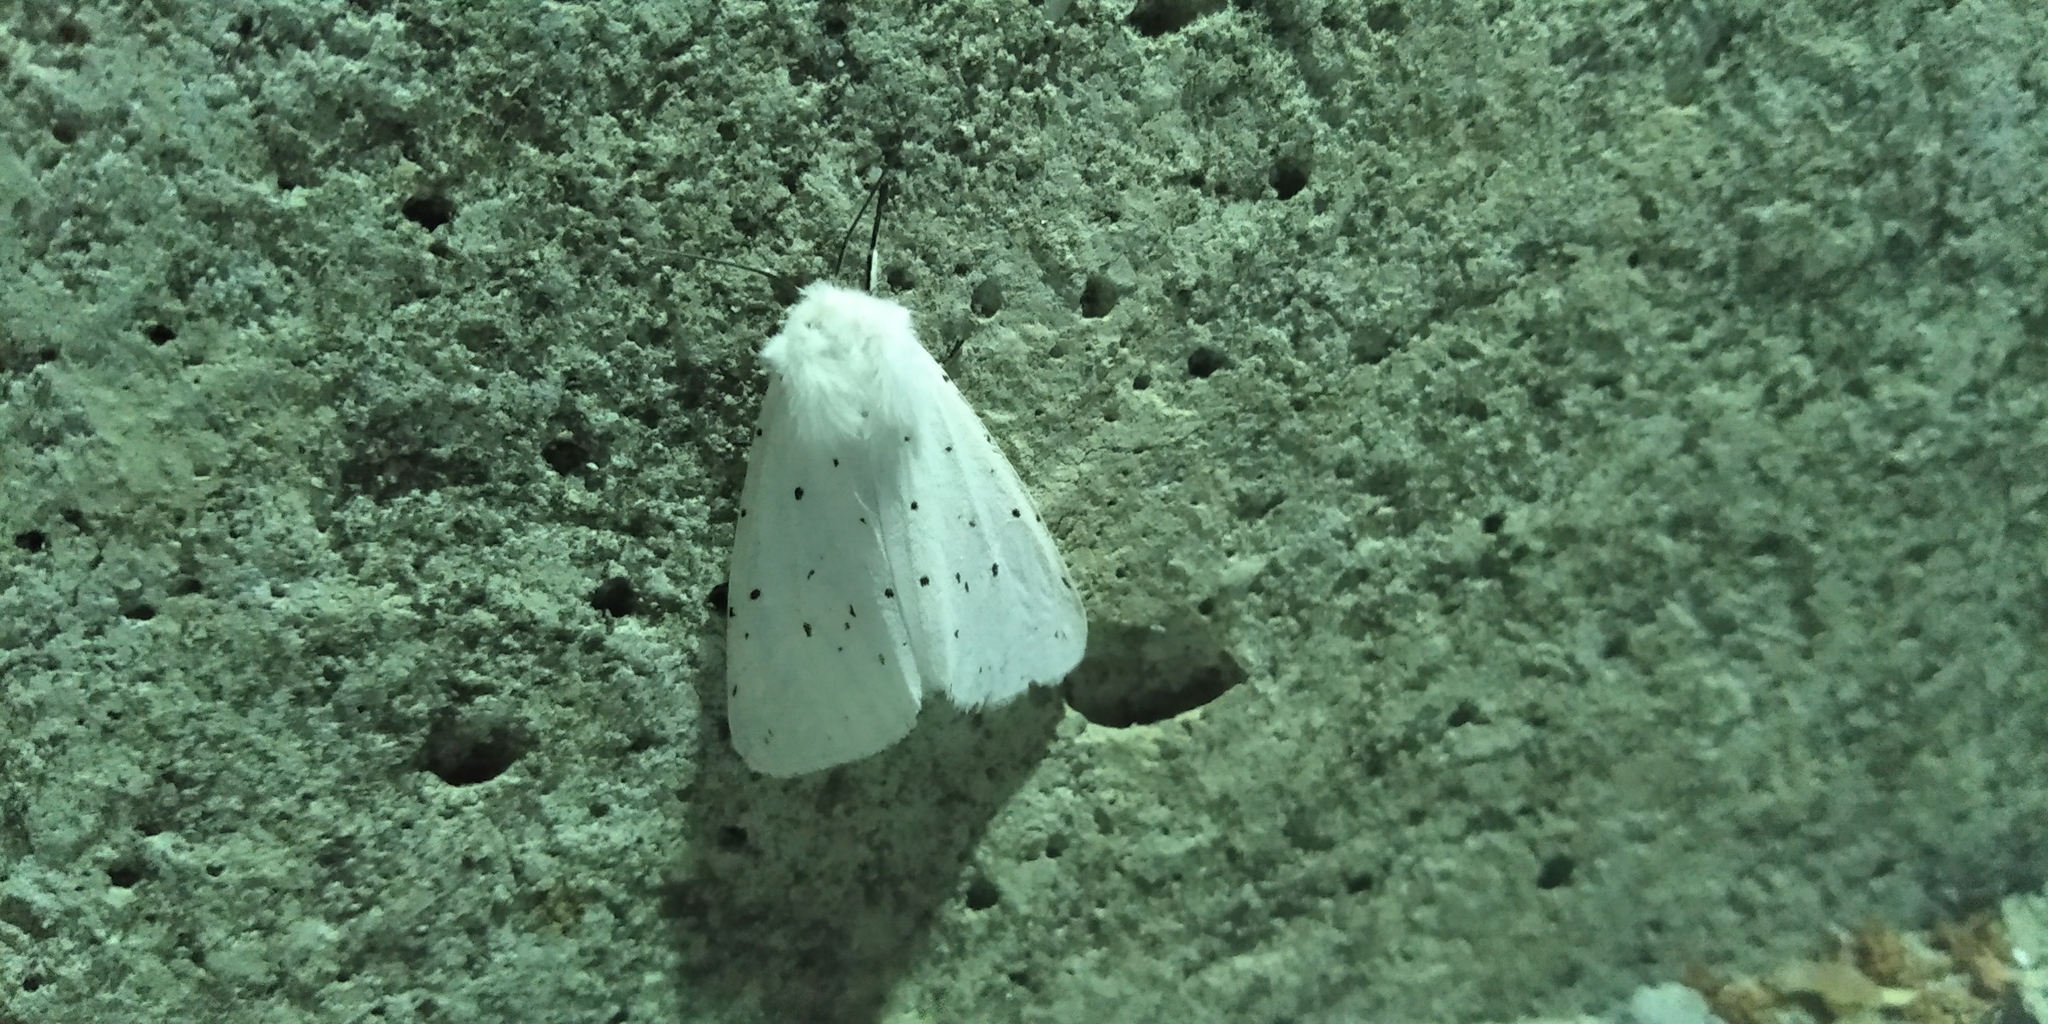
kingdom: Animalia
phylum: Arthropoda
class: Insecta
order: Lepidoptera
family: Erebidae
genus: Spilosoma
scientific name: Spilosoma lubricipeda
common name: White ermine
